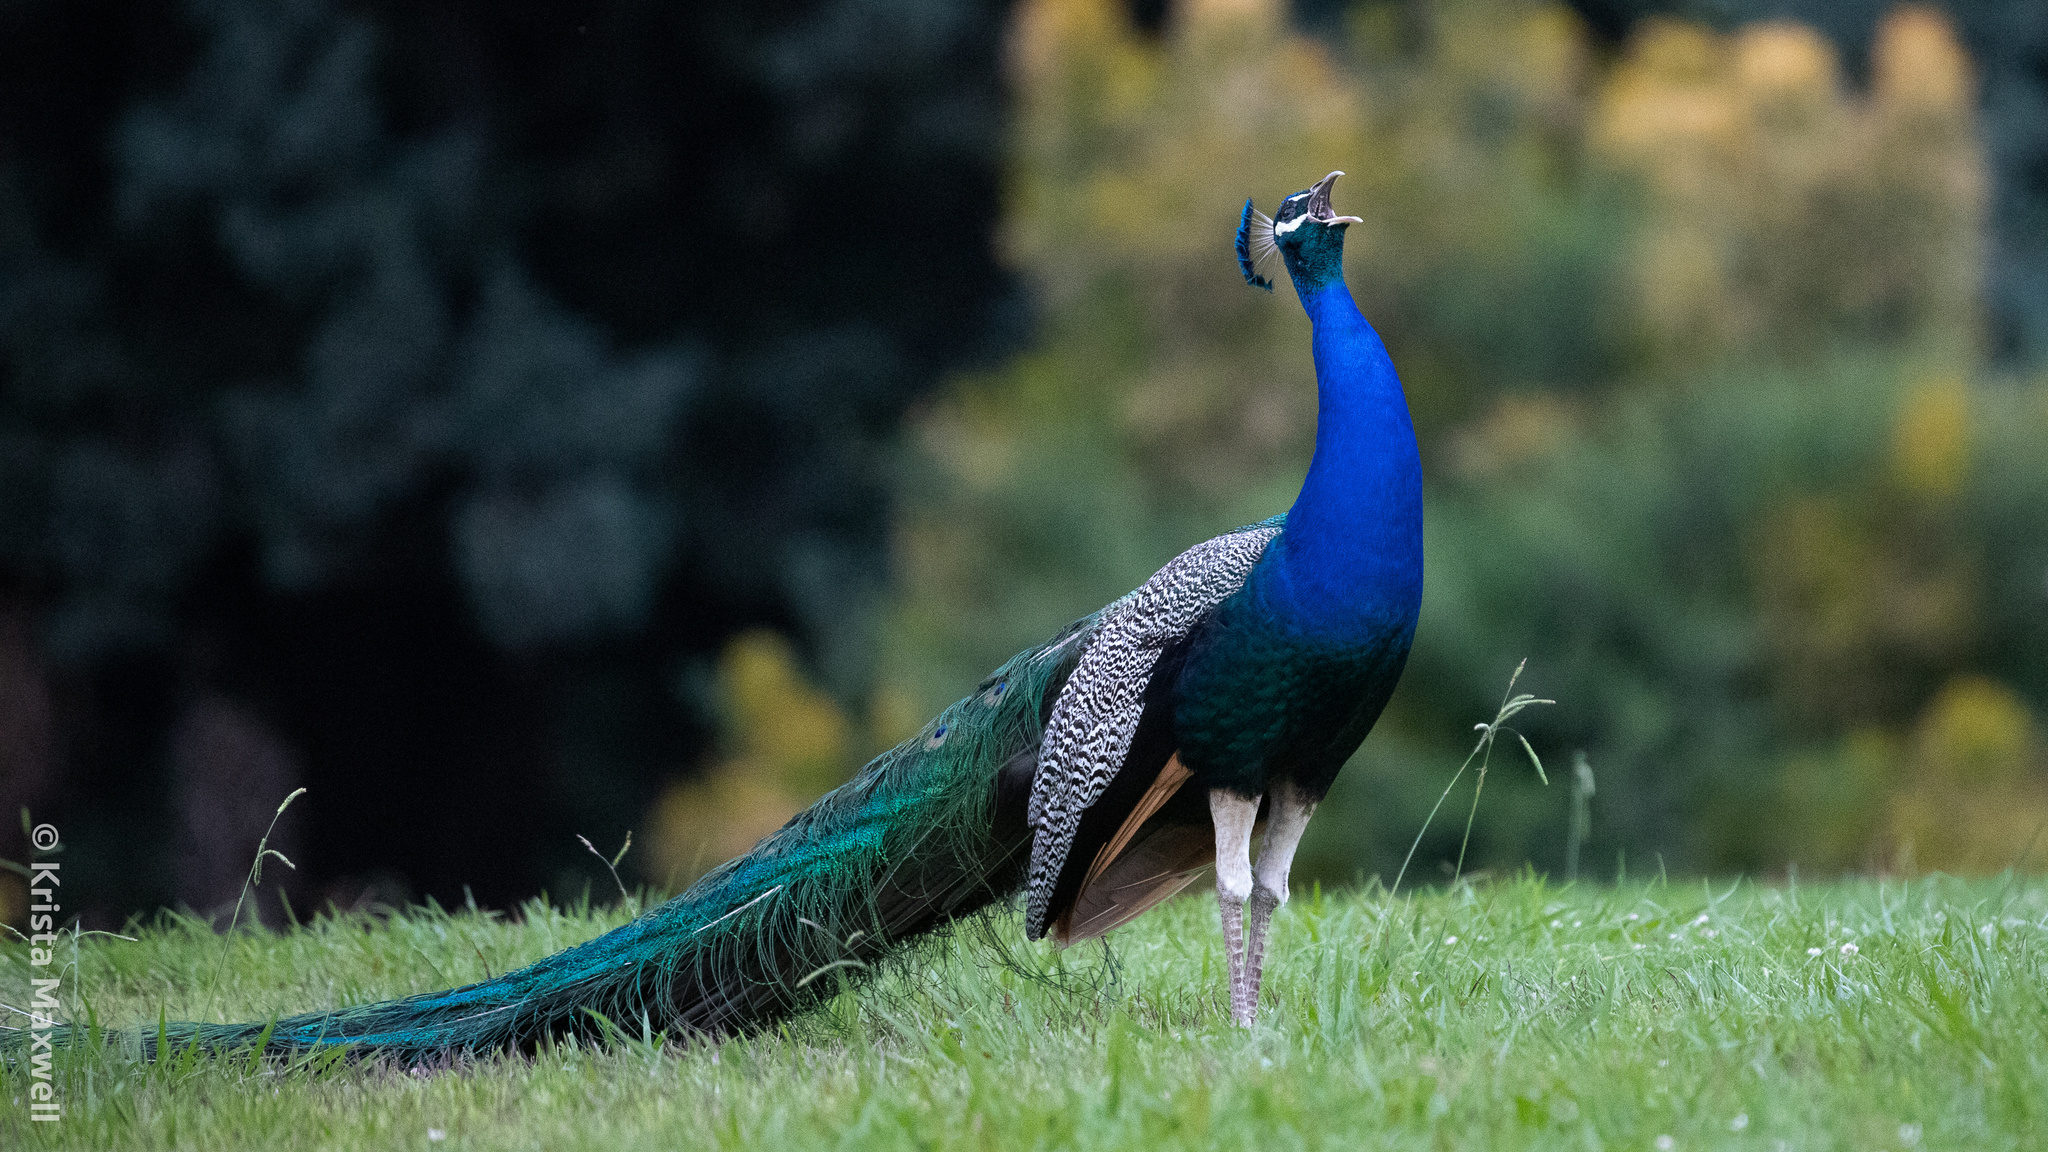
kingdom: Animalia
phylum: Chordata
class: Aves
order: Galliformes
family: Phasianidae
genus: Pavo
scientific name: Pavo cristatus
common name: Indian peafowl
